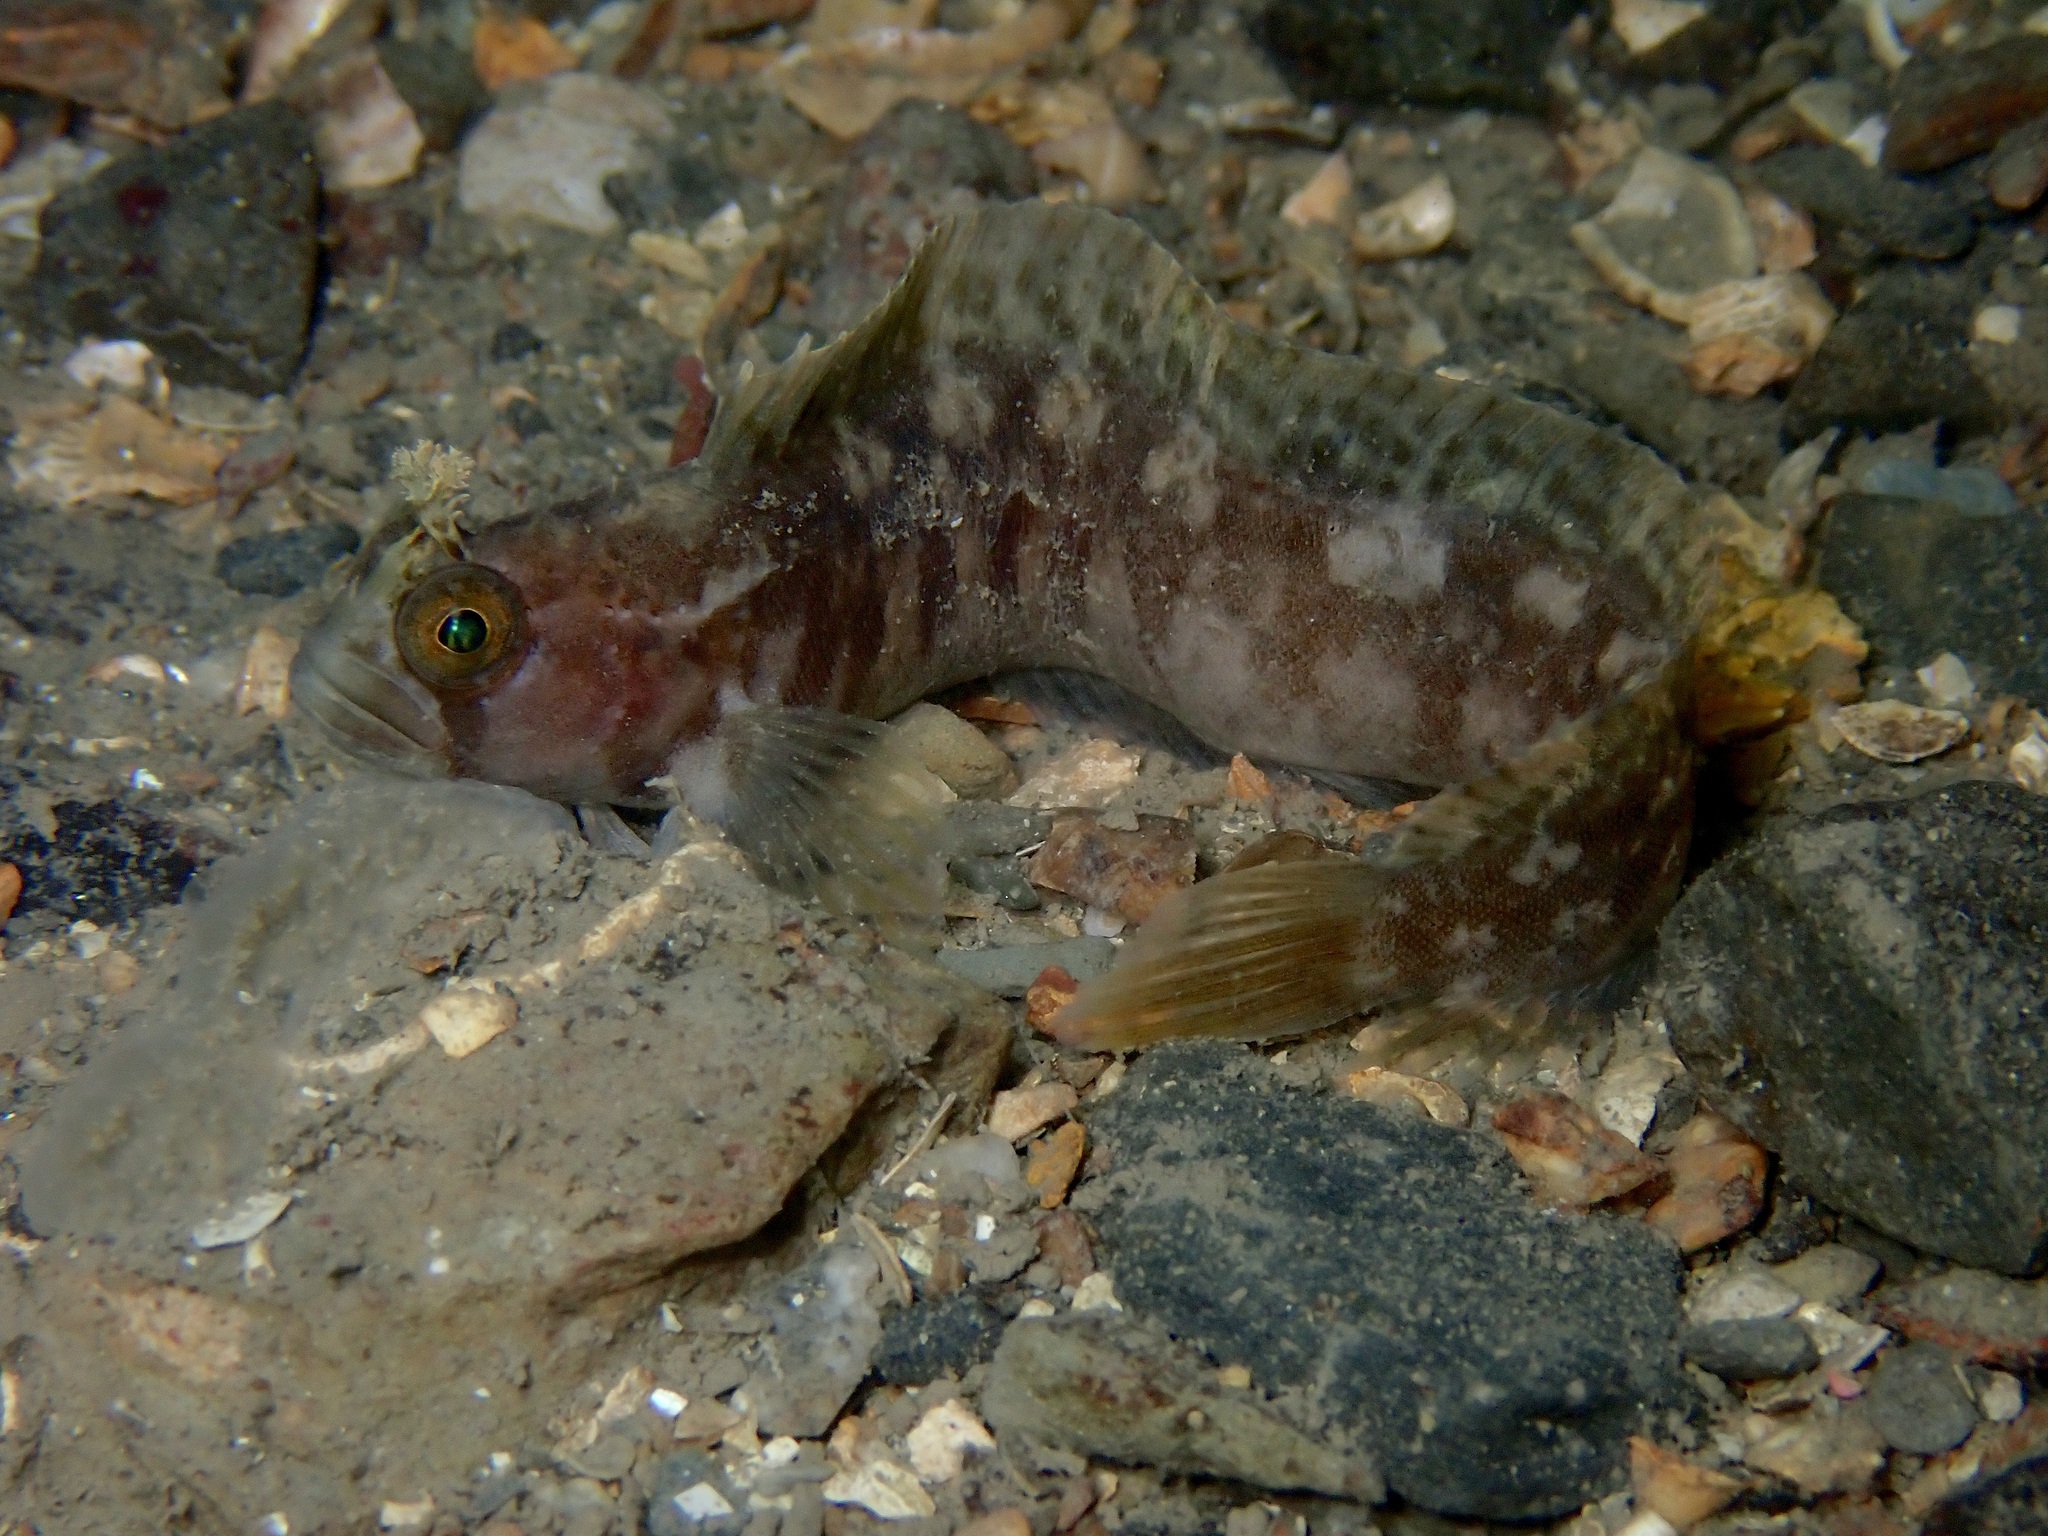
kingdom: Animalia
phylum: Chordata
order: Perciformes
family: Stichaeidae
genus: Chirolophis
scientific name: Chirolophis ascanii
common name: Yarrell's blenny
